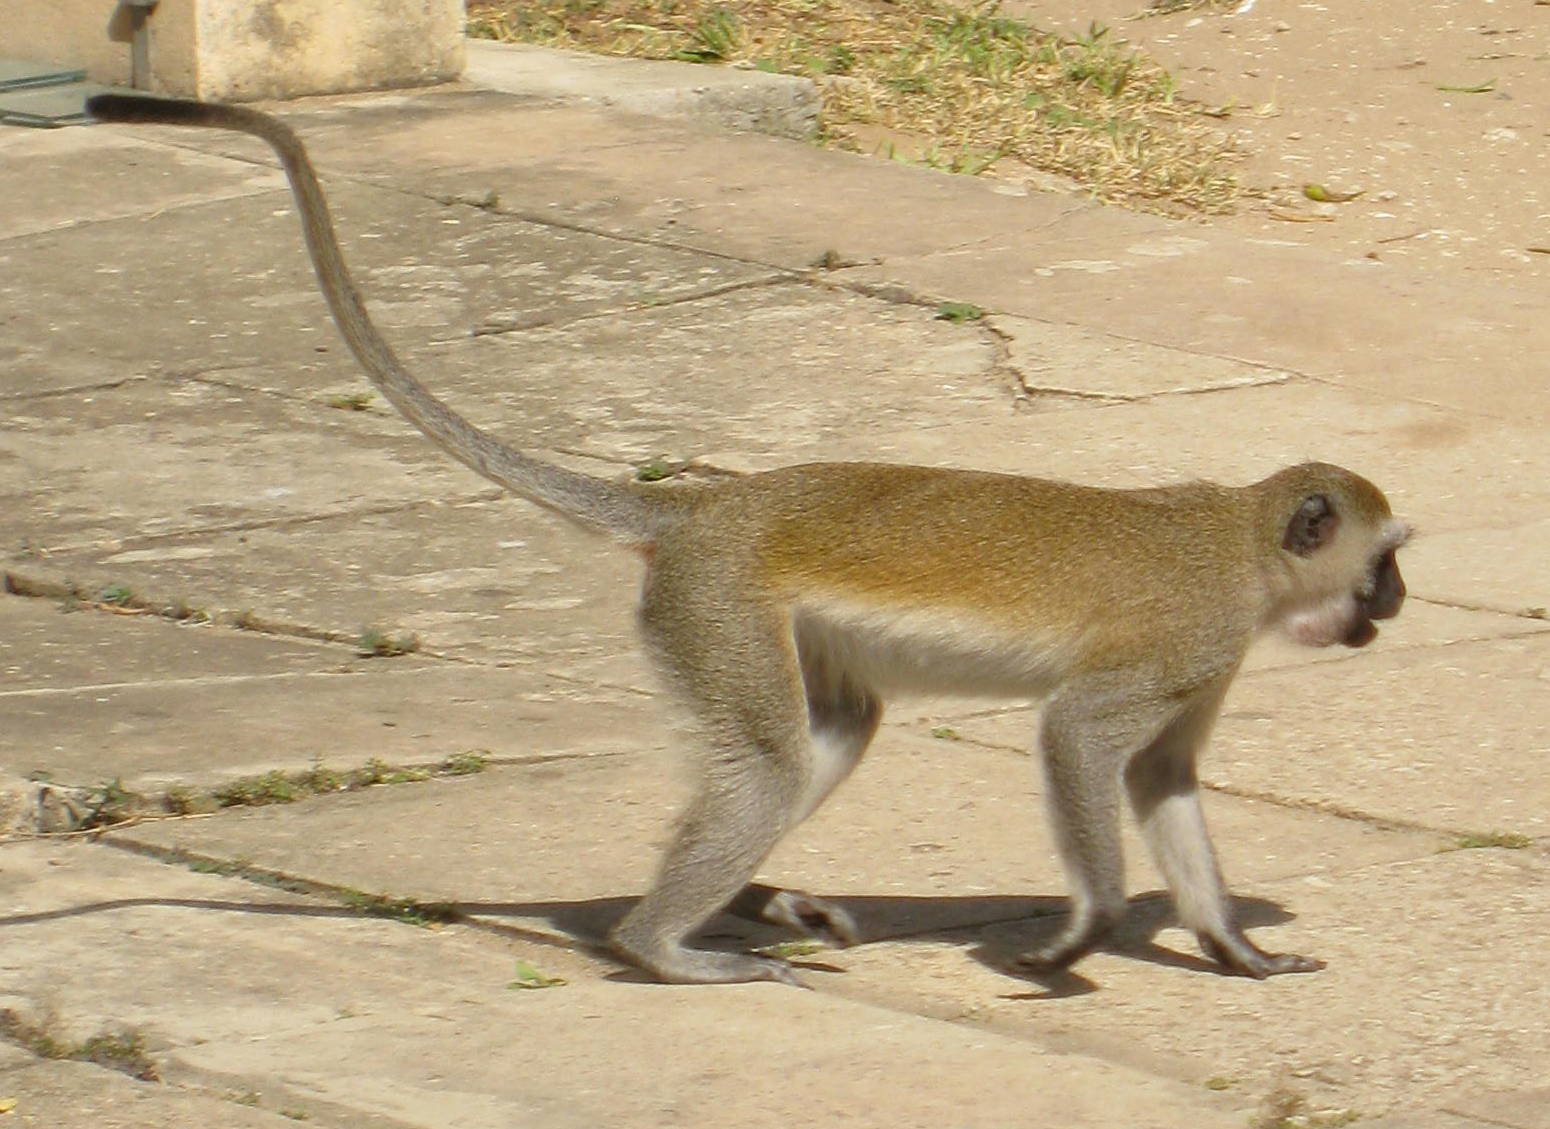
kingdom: Animalia
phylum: Chordata
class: Mammalia
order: Primates
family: Cercopithecidae
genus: Chlorocebus
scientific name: Chlorocebus pygerythrus
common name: Vervet monkey
